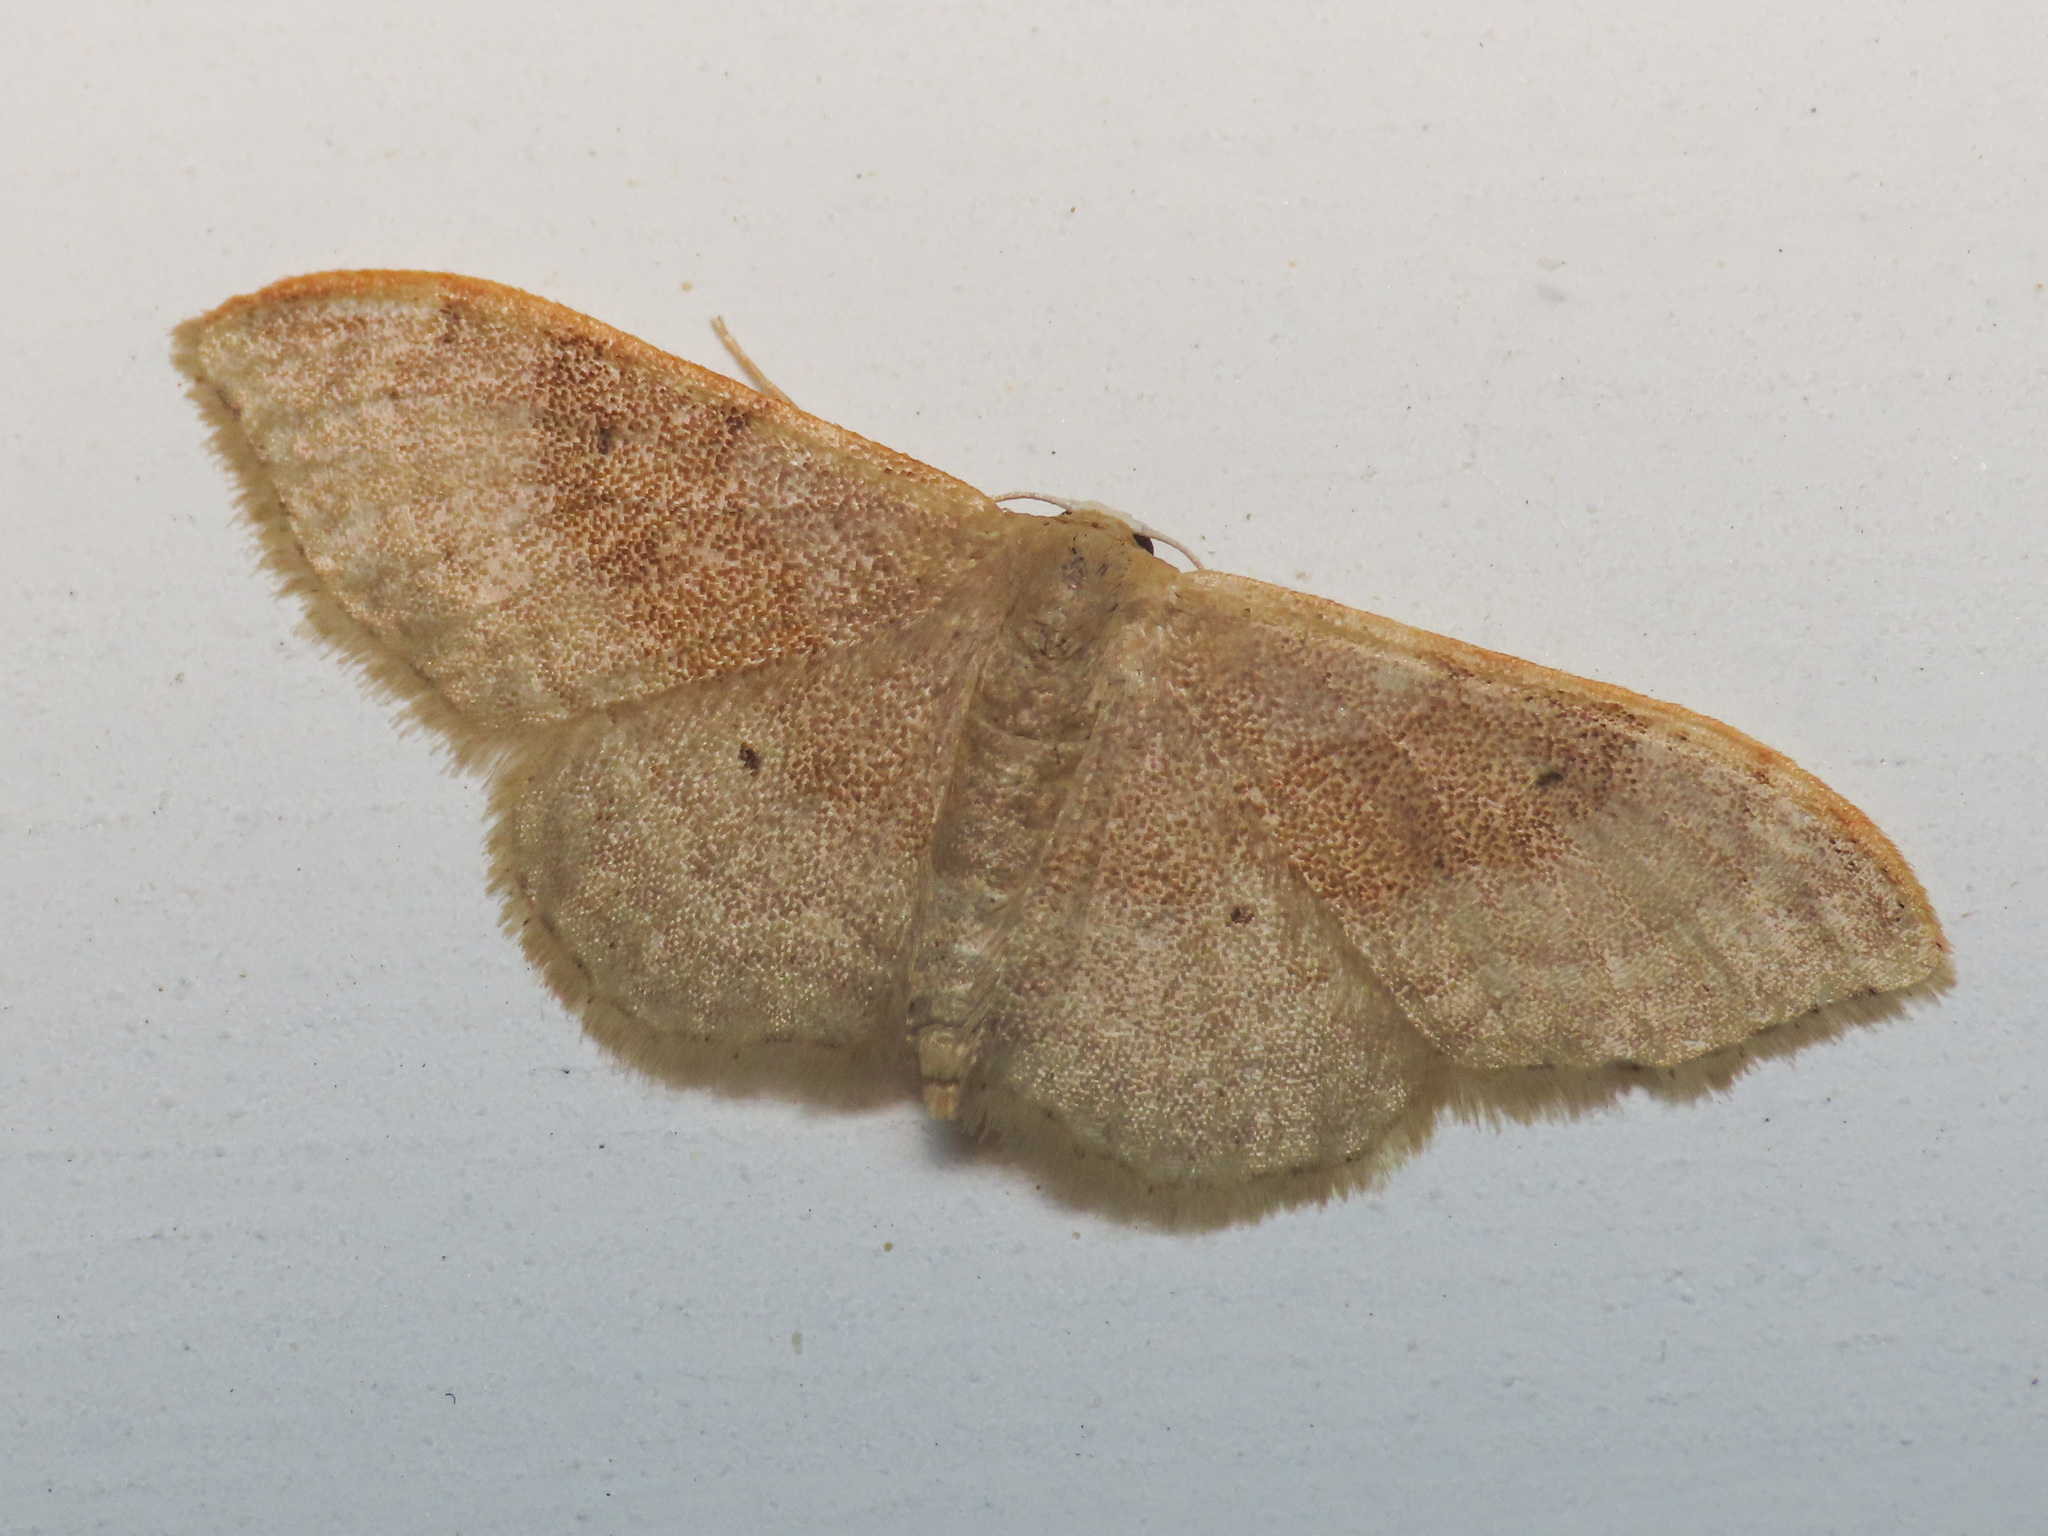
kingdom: Animalia
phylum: Arthropoda
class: Insecta
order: Lepidoptera
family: Geometridae
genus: Idaea
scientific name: Idaea degeneraria
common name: Portland ribbon wave
